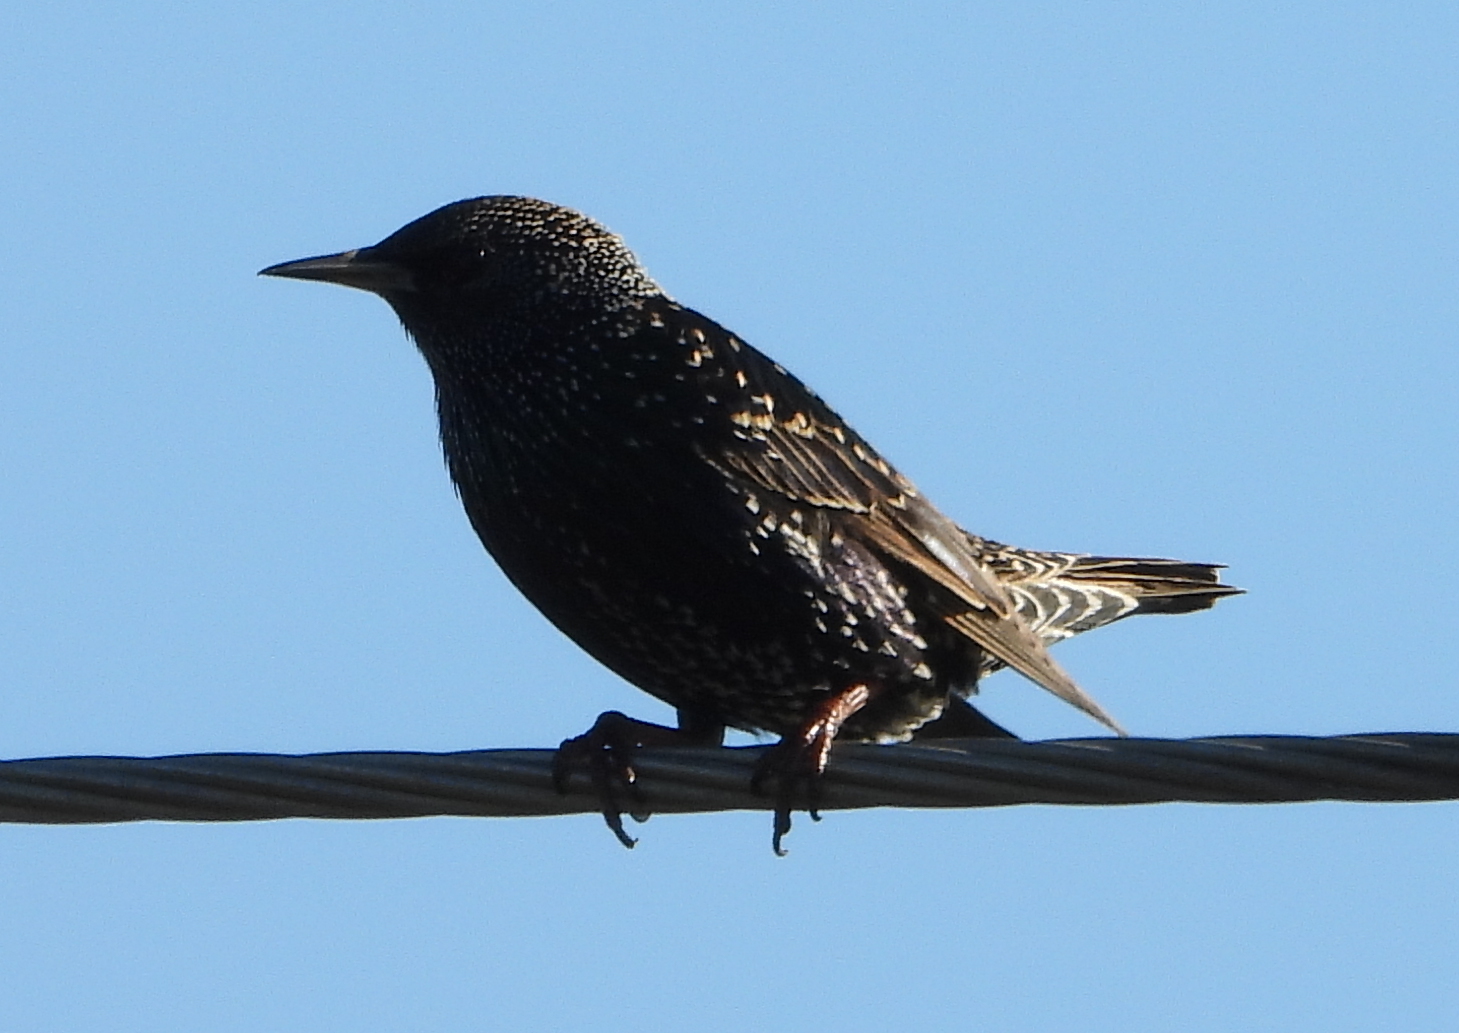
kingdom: Animalia
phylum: Chordata
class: Aves
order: Passeriformes
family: Sturnidae
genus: Sturnus
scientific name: Sturnus vulgaris
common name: Common starling
